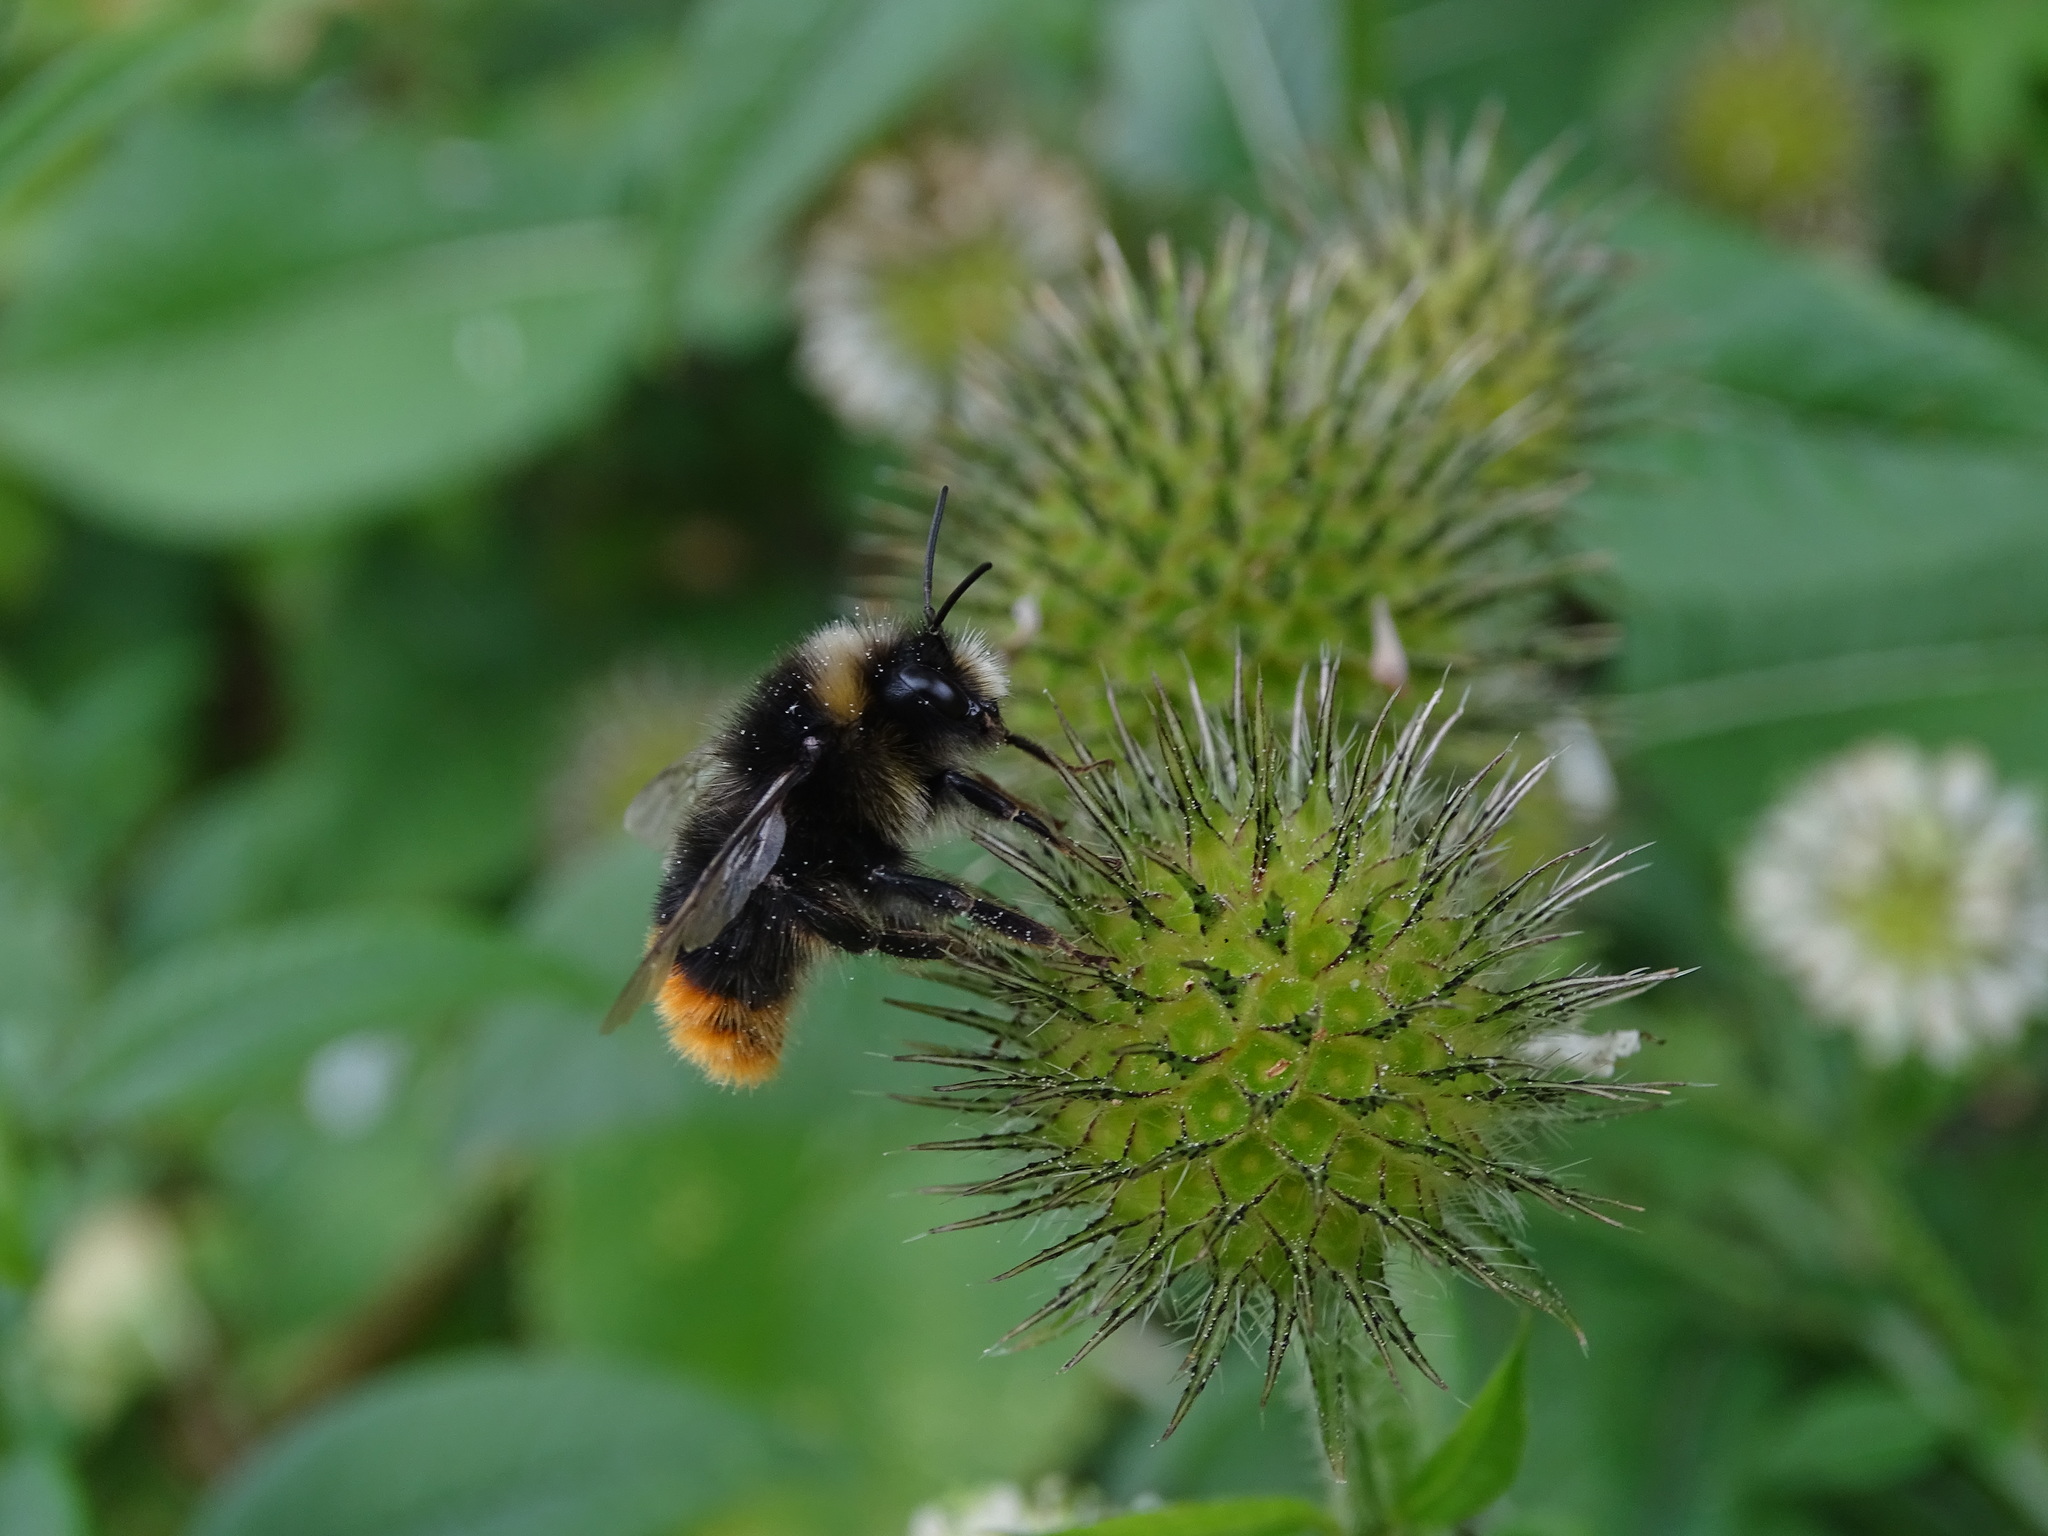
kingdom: Animalia
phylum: Arthropoda
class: Insecta
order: Hymenoptera
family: Apidae
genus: Bombus
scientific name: Bombus lapidarius
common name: Large red-tailed humble-bee
